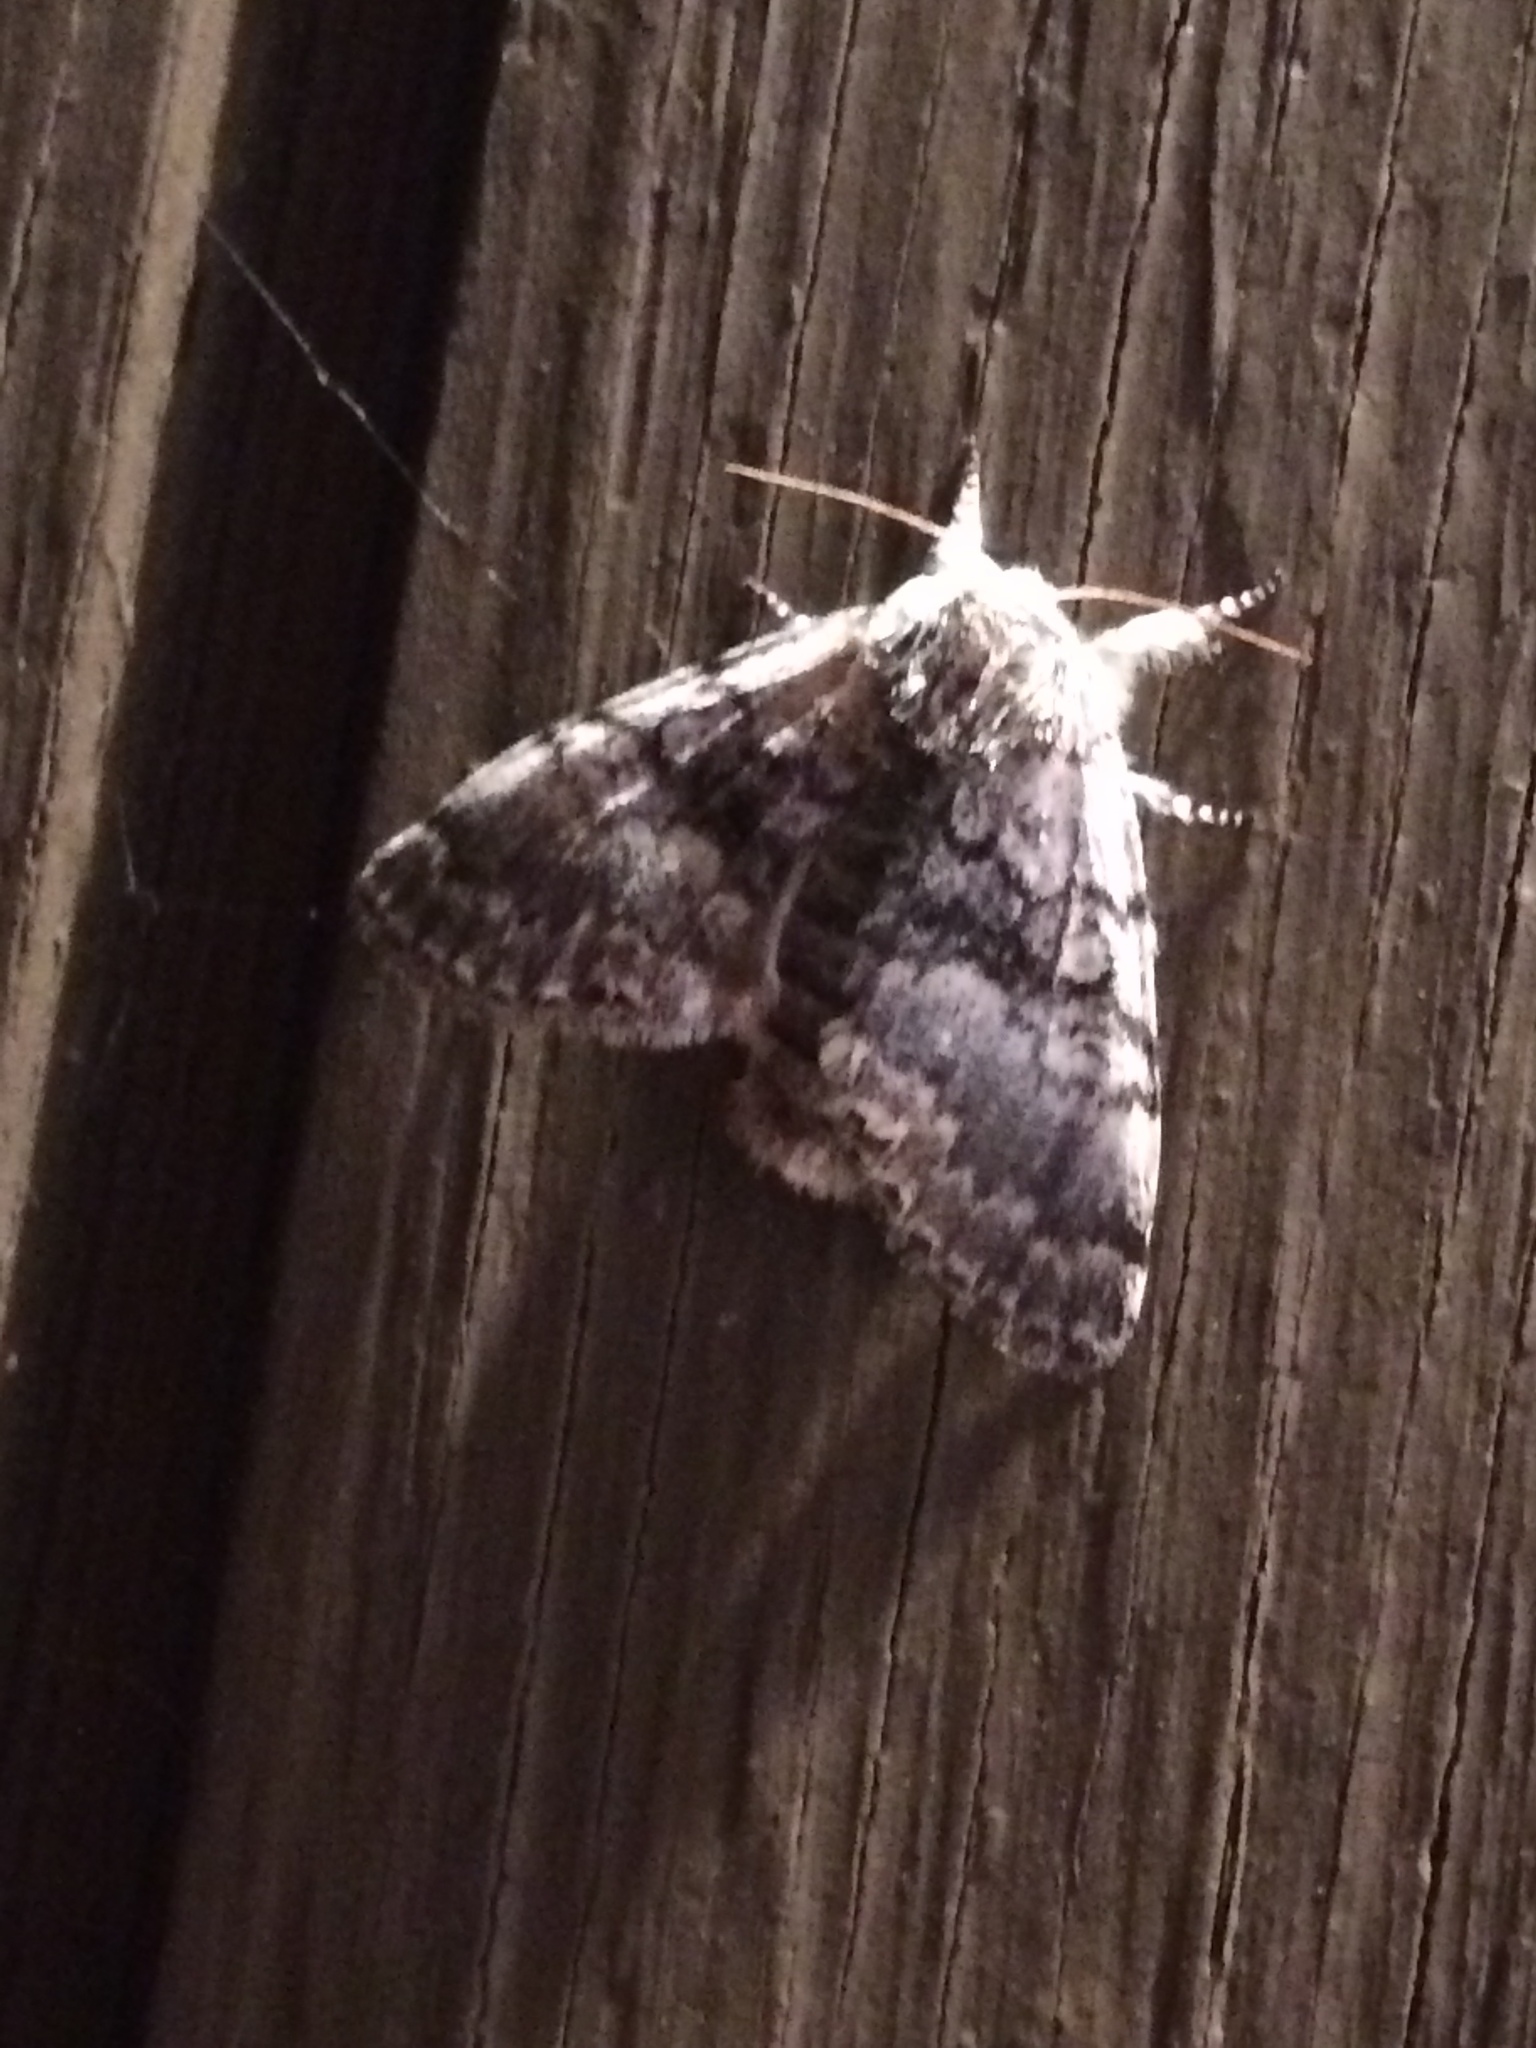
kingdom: Animalia
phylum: Arthropoda
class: Insecta
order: Lepidoptera
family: Noctuidae
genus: Panthea
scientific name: Panthea furcilla
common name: Eastern panthea moth
